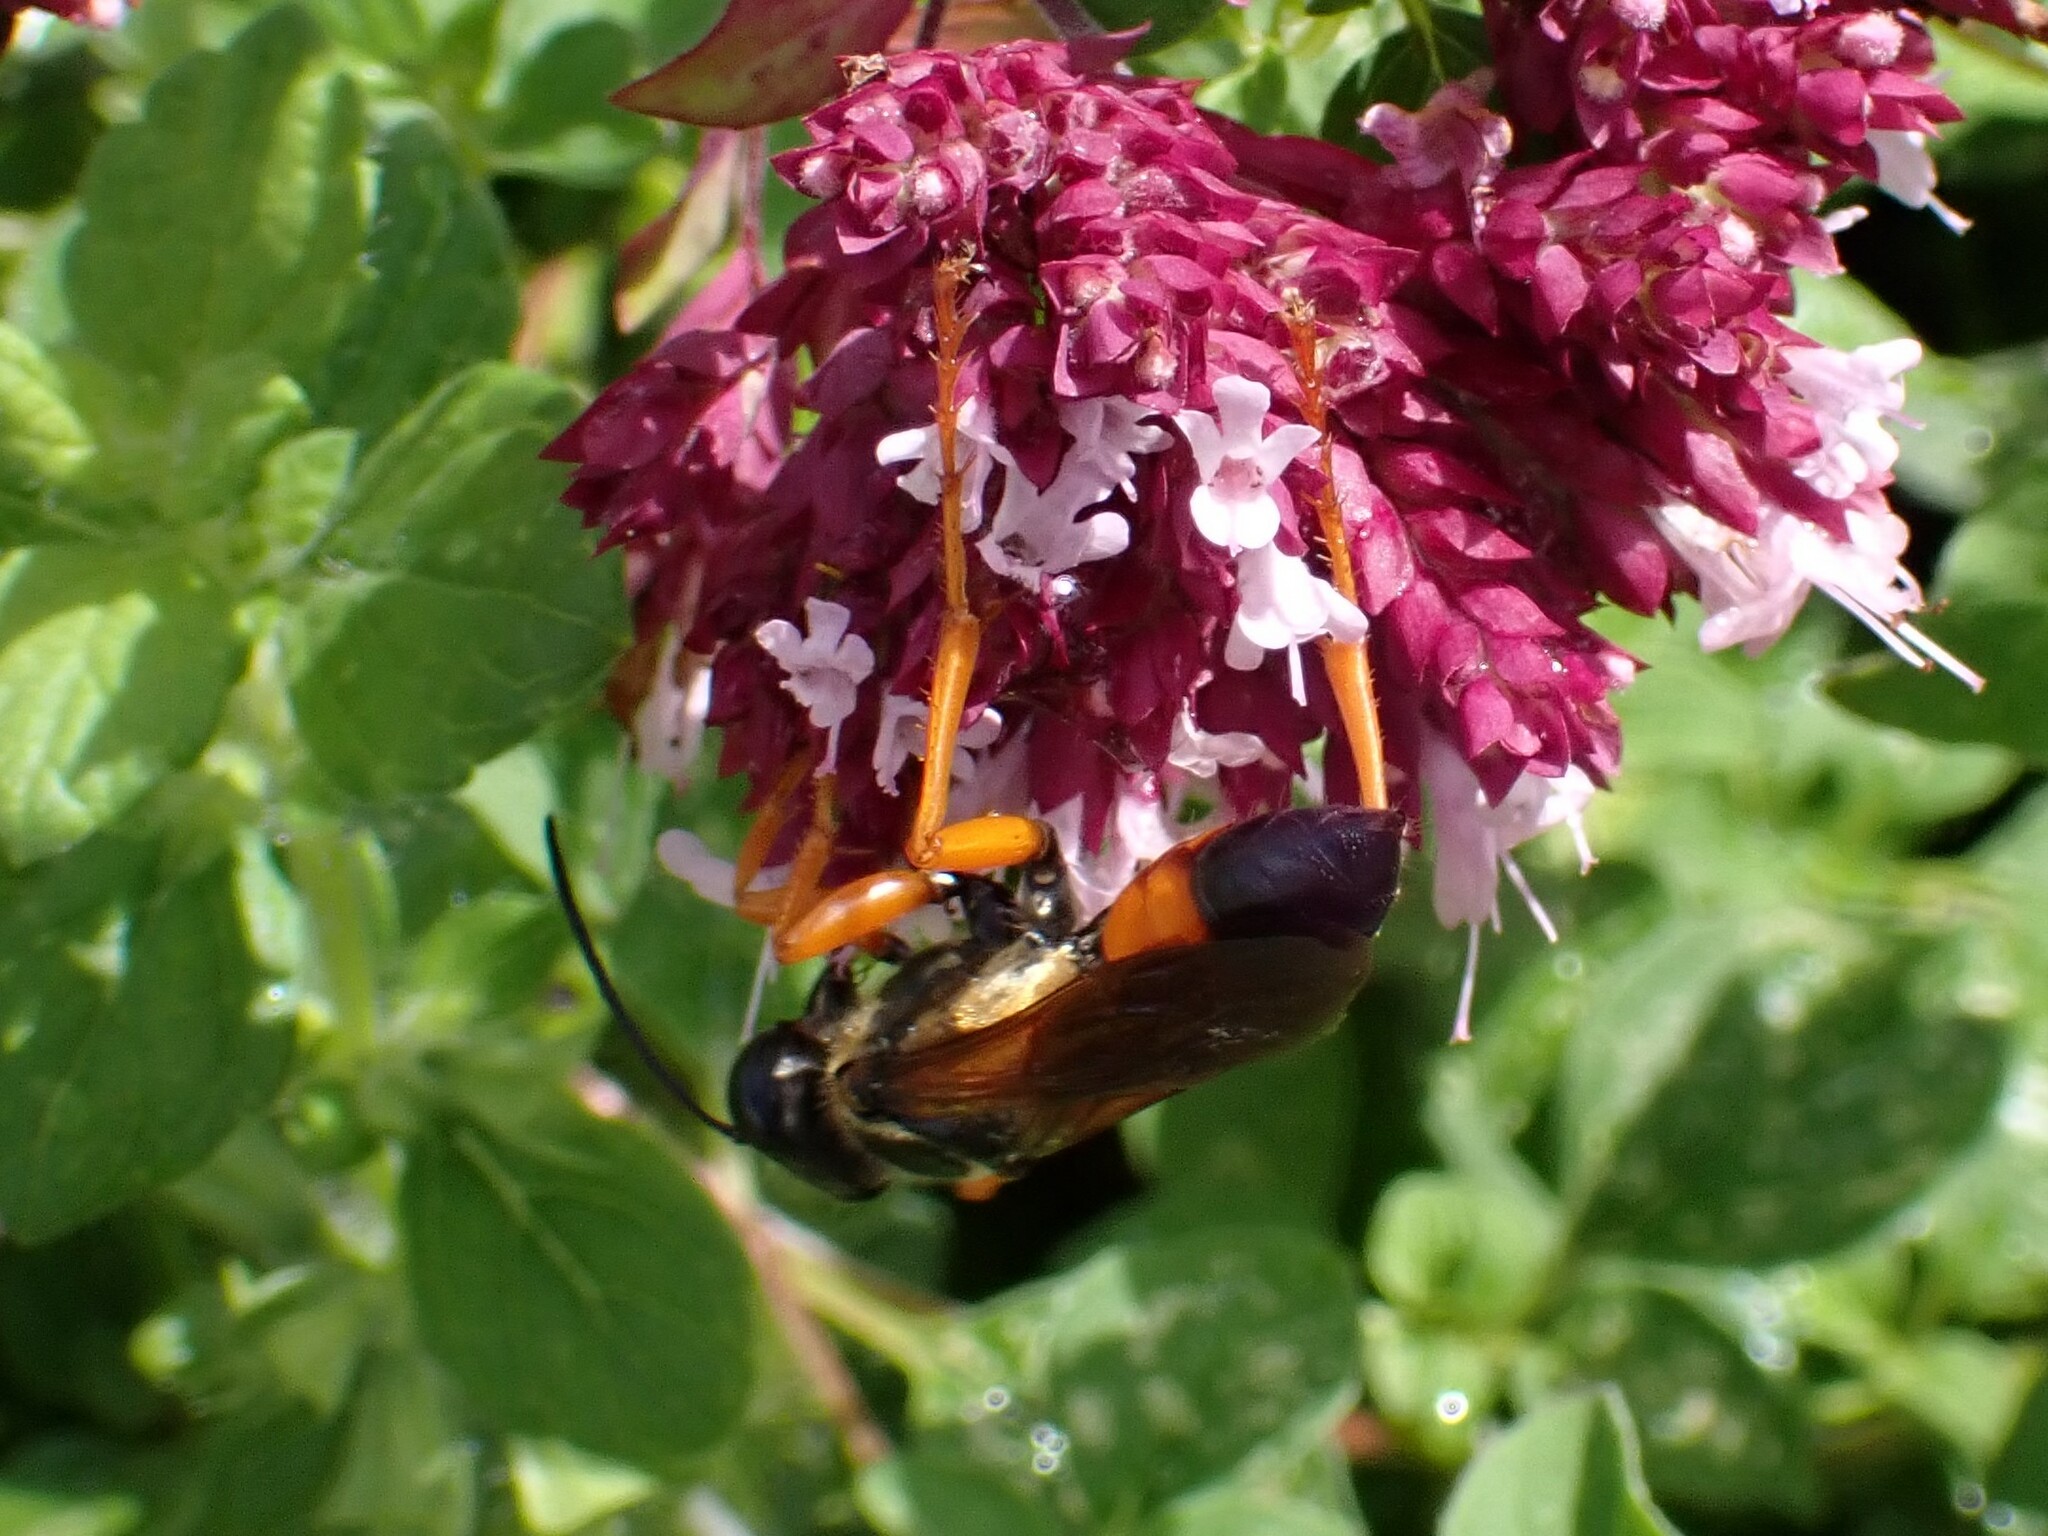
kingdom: Animalia
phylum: Arthropoda
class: Insecta
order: Hymenoptera
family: Sphecidae
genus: Sphex
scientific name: Sphex ichneumoneus
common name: Great golden digger wasp
